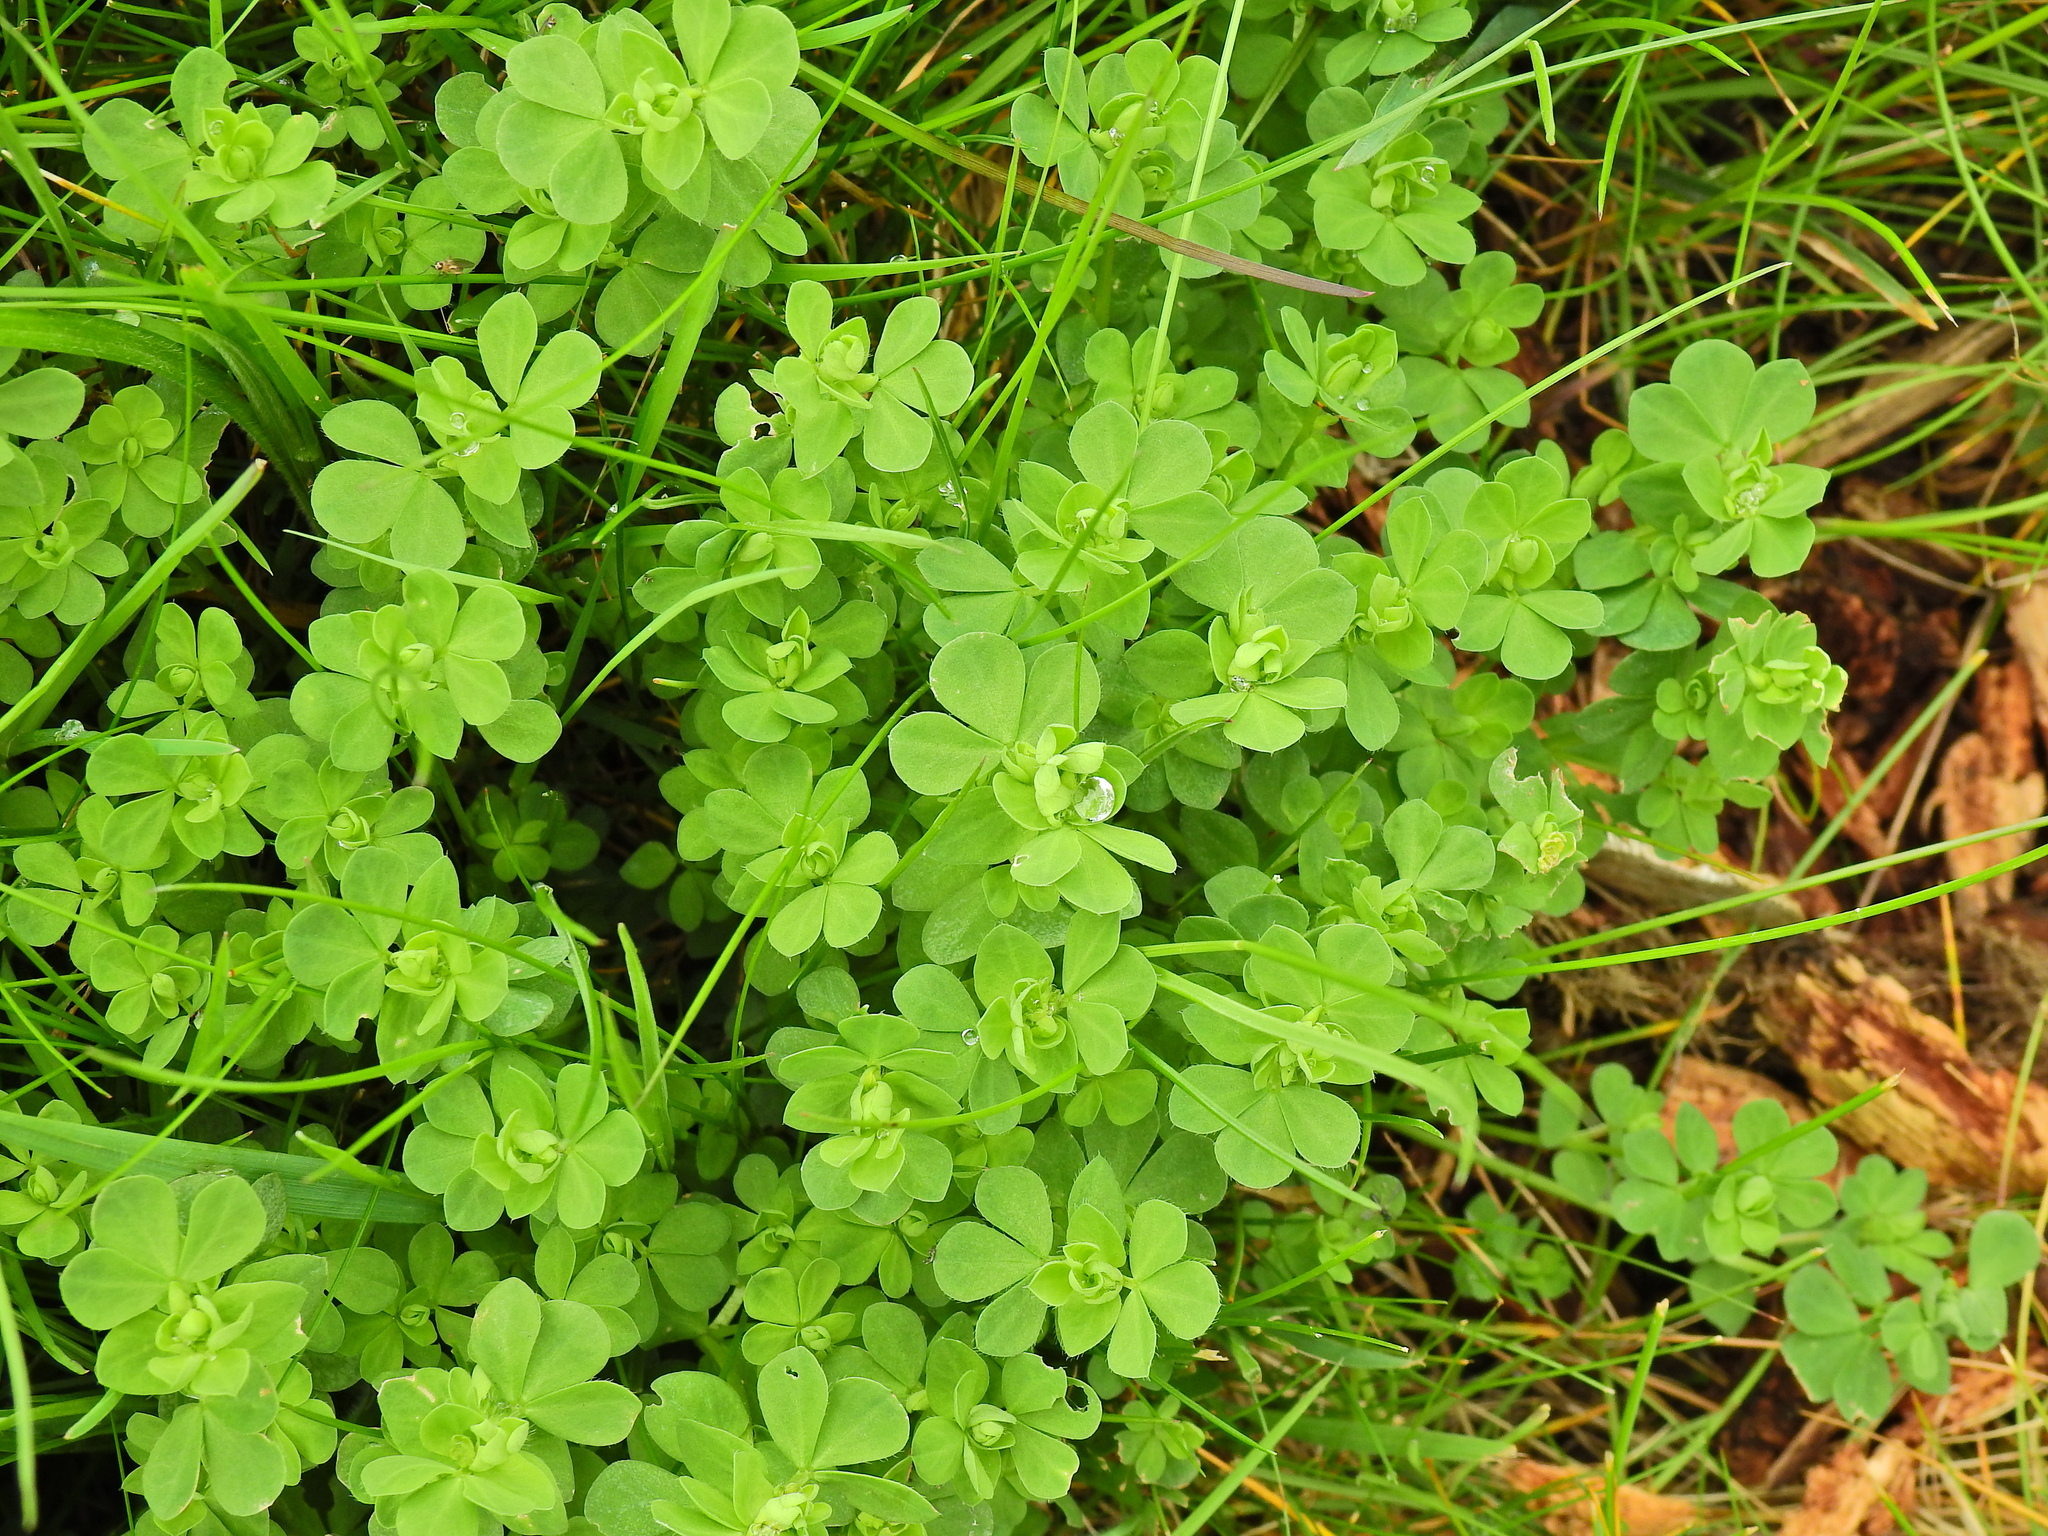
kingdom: Plantae
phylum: Tracheophyta
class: Magnoliopsida
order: Fabales
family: Fabaceae
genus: Lotus
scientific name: Lotus corniculatus
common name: Common bird's-foot-trefoil
